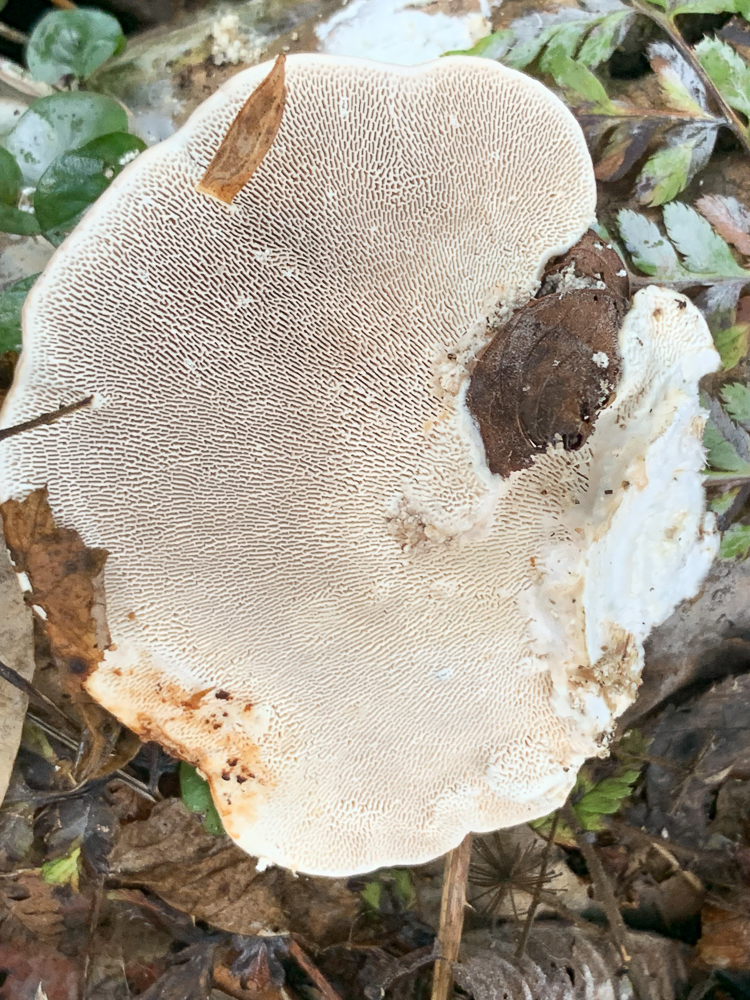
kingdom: Fungi
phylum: Basidiomycota
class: Agaricomycetes
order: Polyporales
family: Polyporaceae
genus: Trametes
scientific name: Trametes gibbosa
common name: Lumpy bracket
